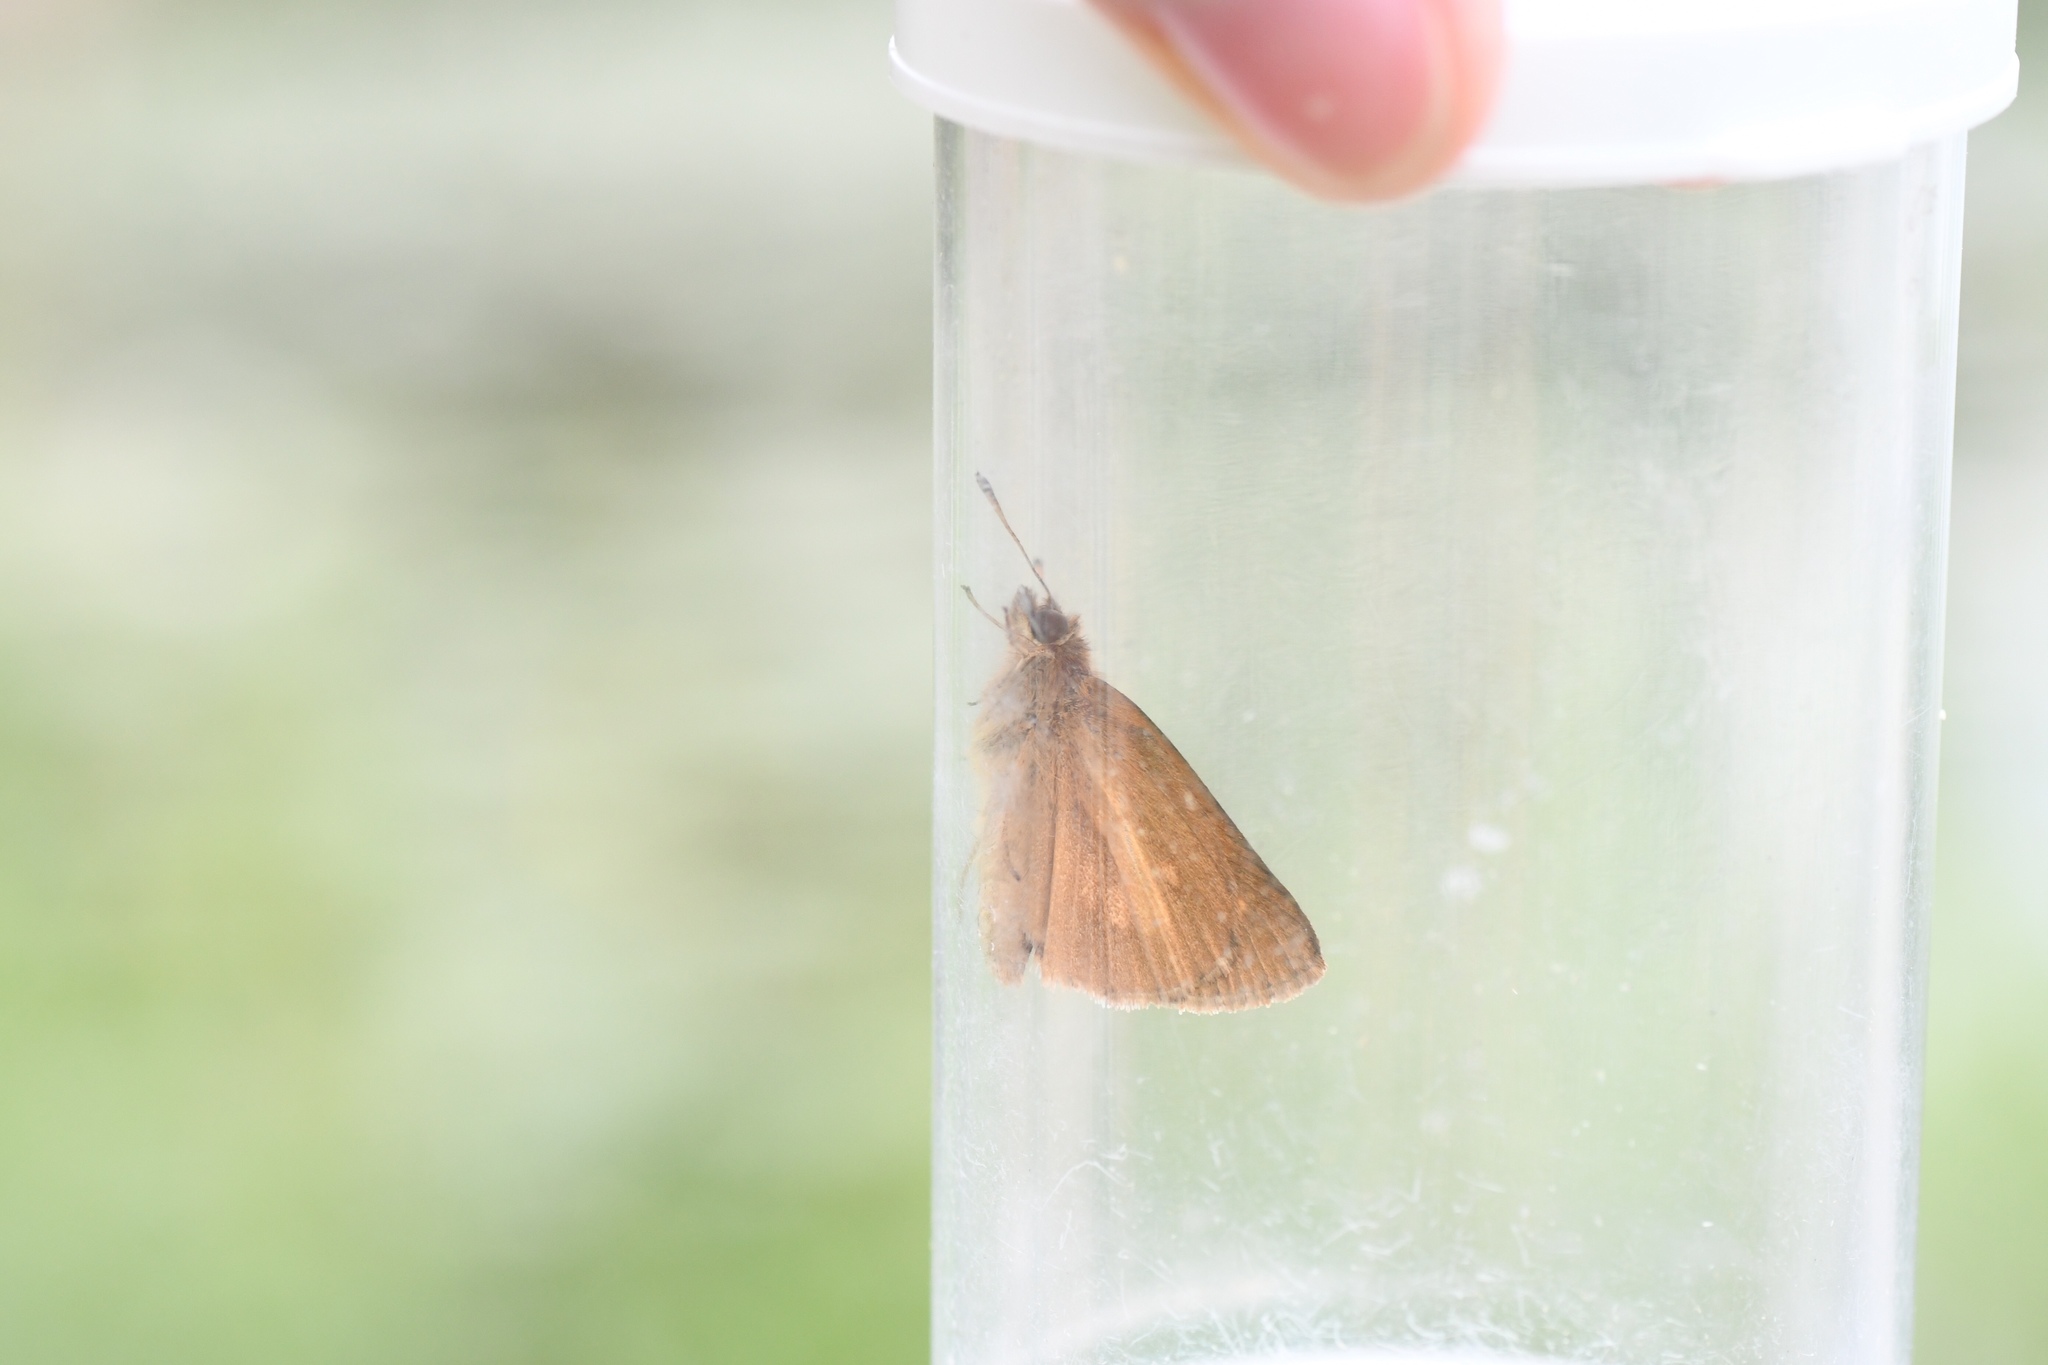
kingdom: Animalia
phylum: Arthropoda
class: Insecta
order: Lepidoptera
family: Hesperiidae
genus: Poanes
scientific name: Poanes viator
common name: Broad-winged skipper
